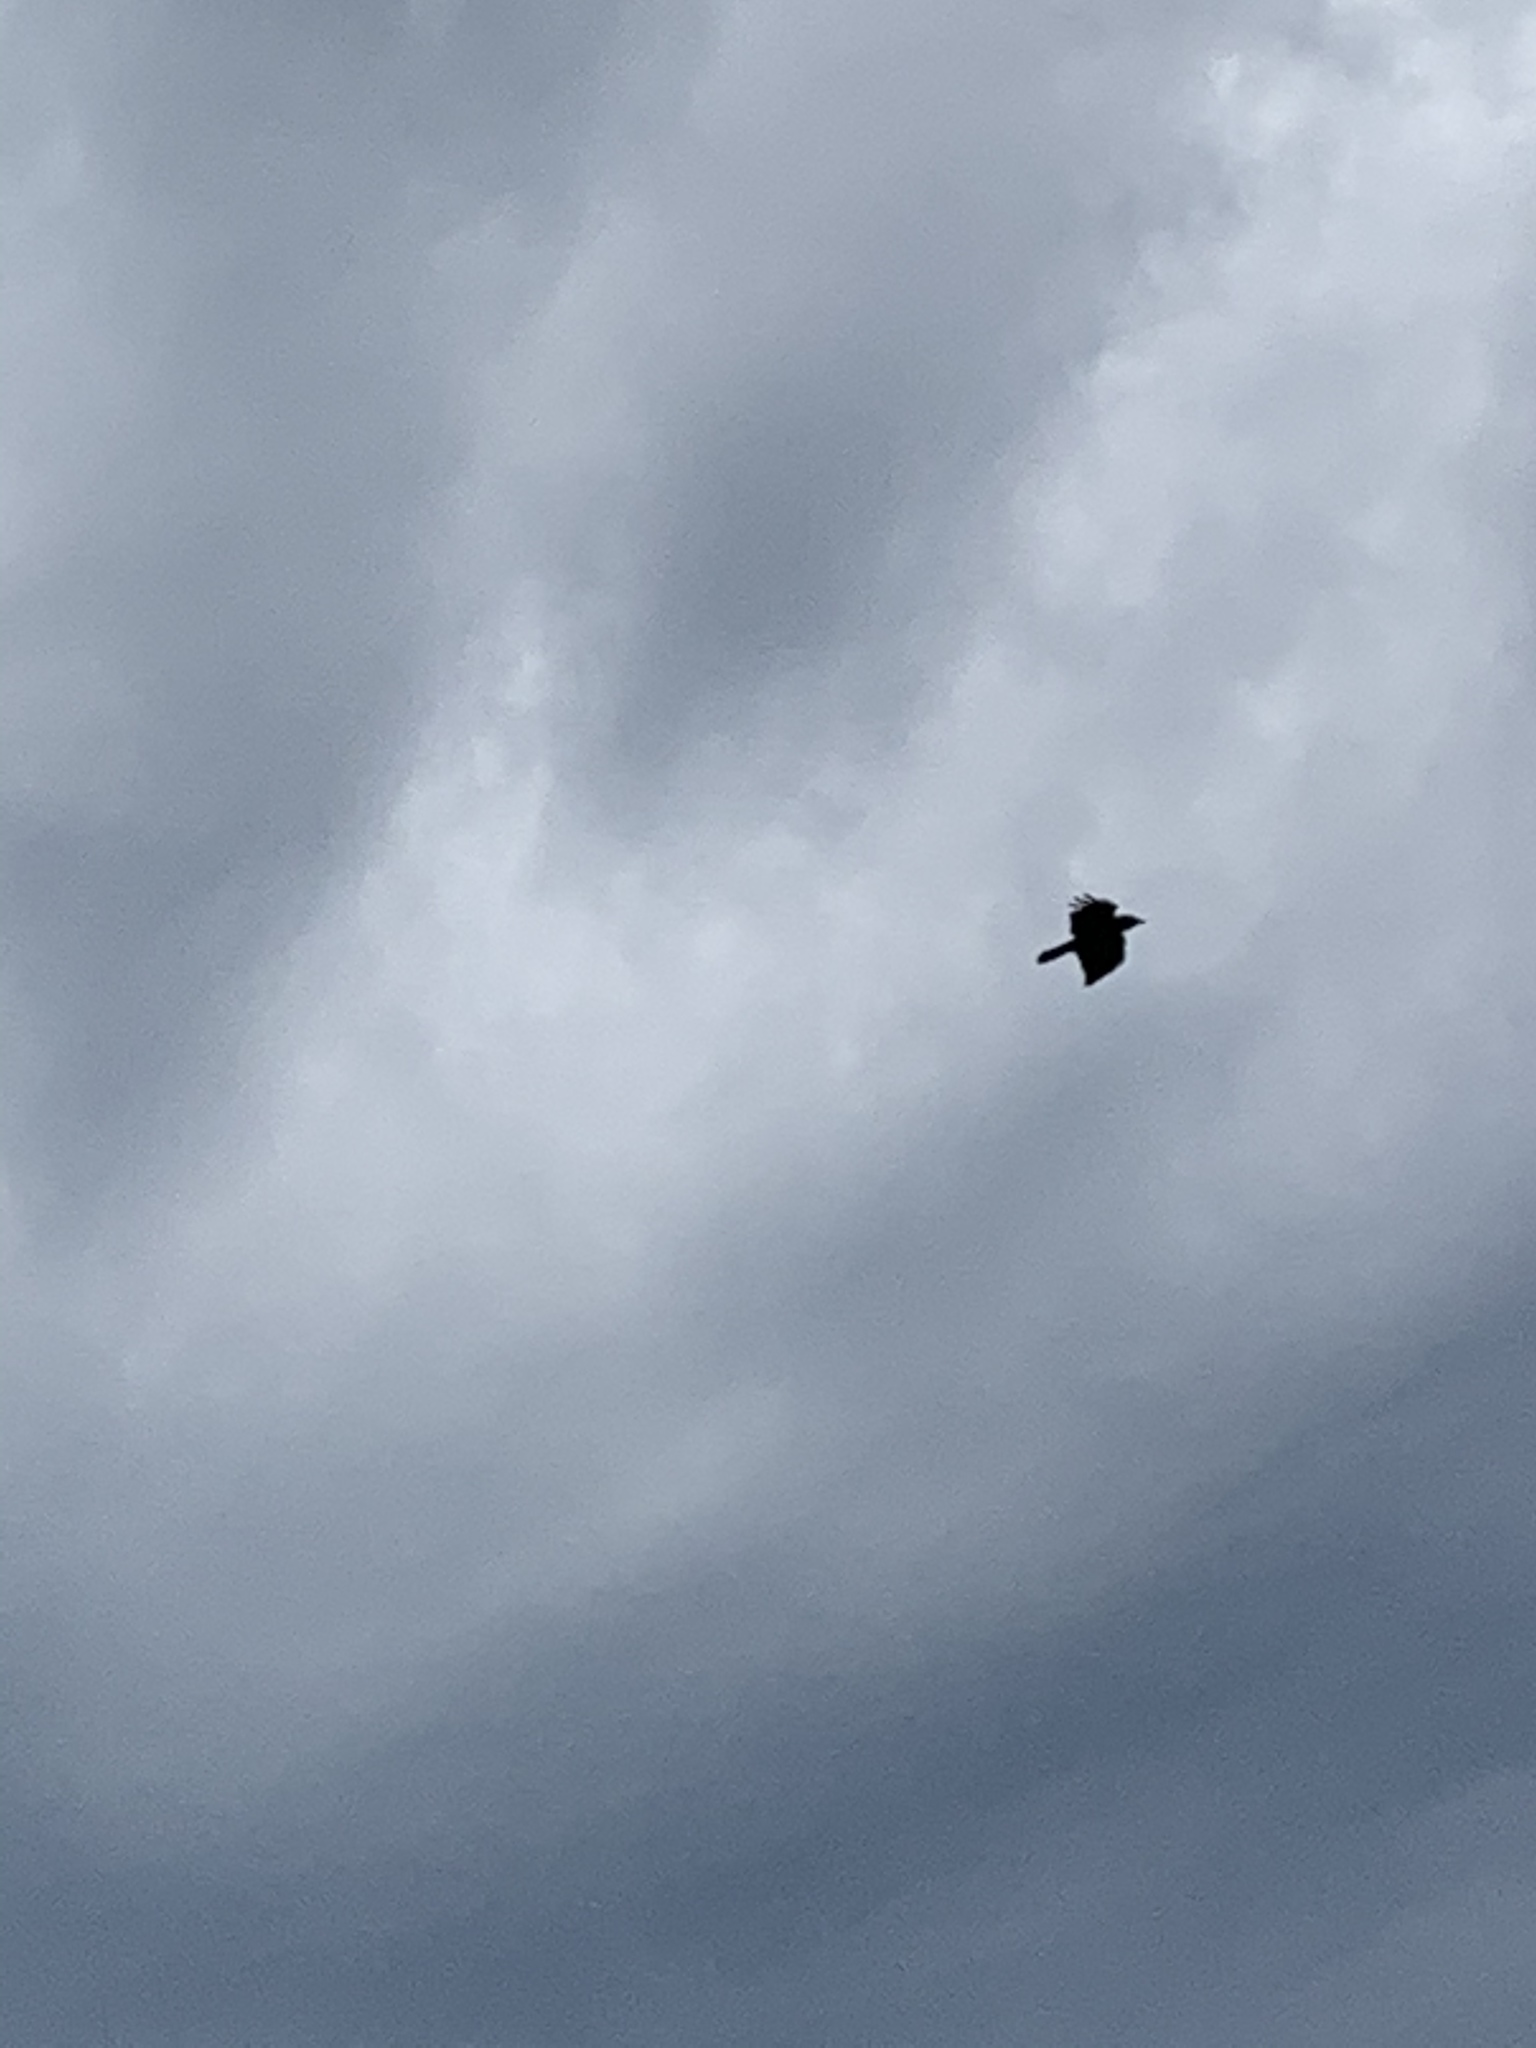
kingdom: Animalia
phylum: Chordata
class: Aves
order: Passeriformes
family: Corvidae
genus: Corvus
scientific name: Corvus ossifragus
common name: Fish crow
